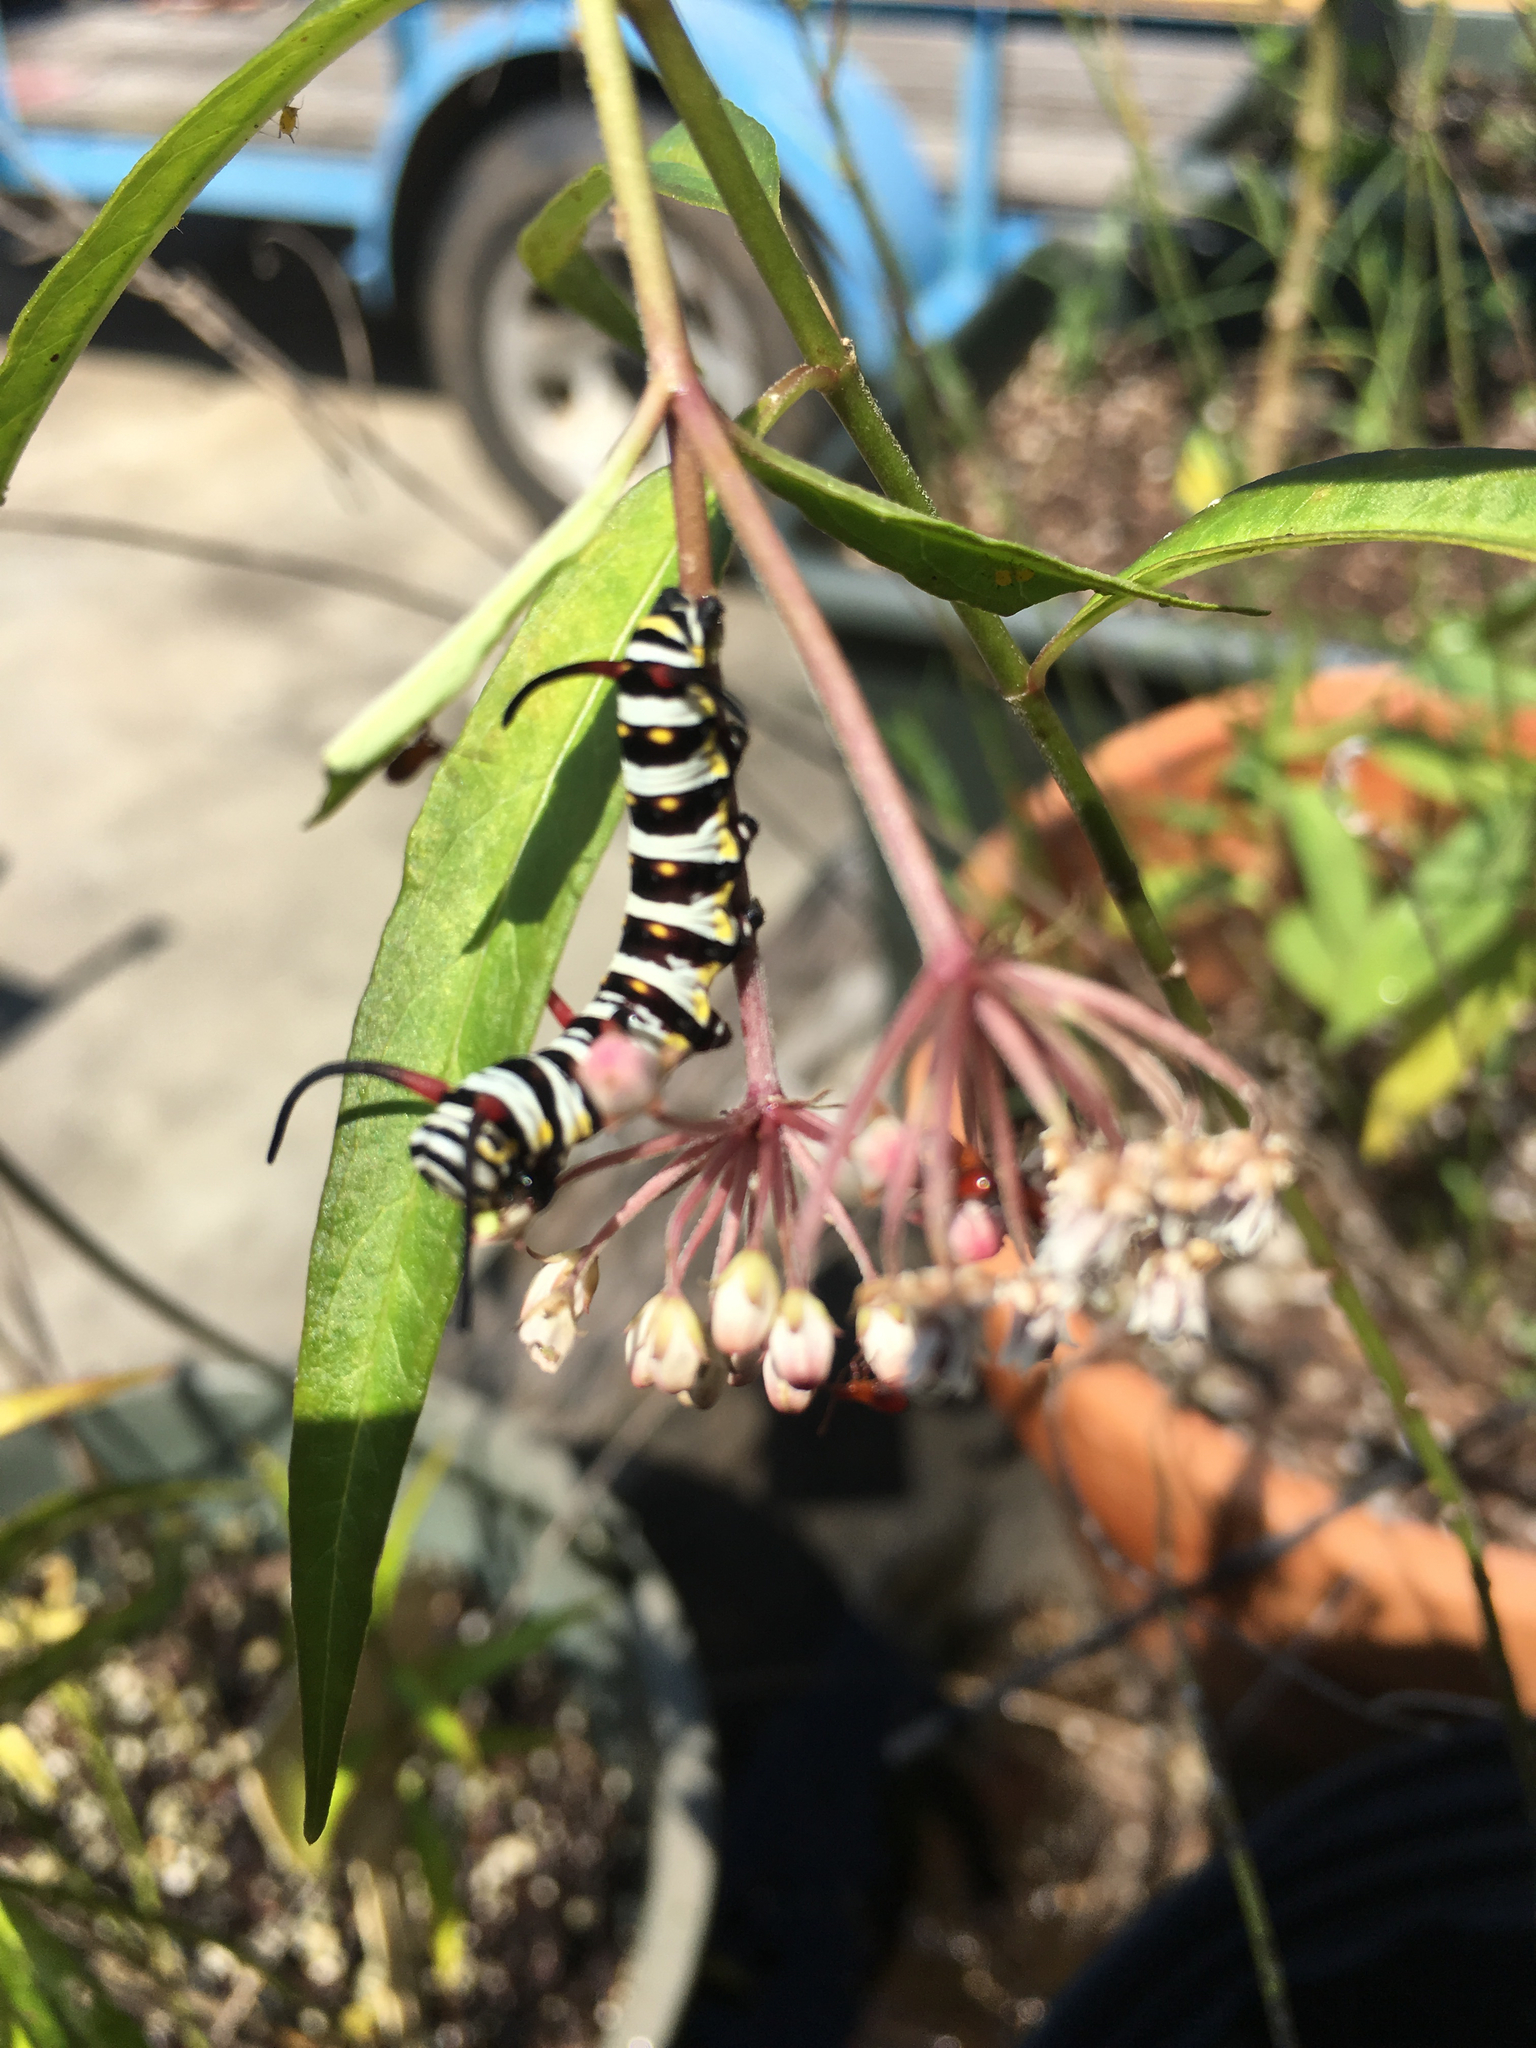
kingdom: Animalia
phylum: Arthropoda
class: Insecta
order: Lepidoptera
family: Nymphalidae
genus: Danaus
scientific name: Danaus gilippus
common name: Queen
